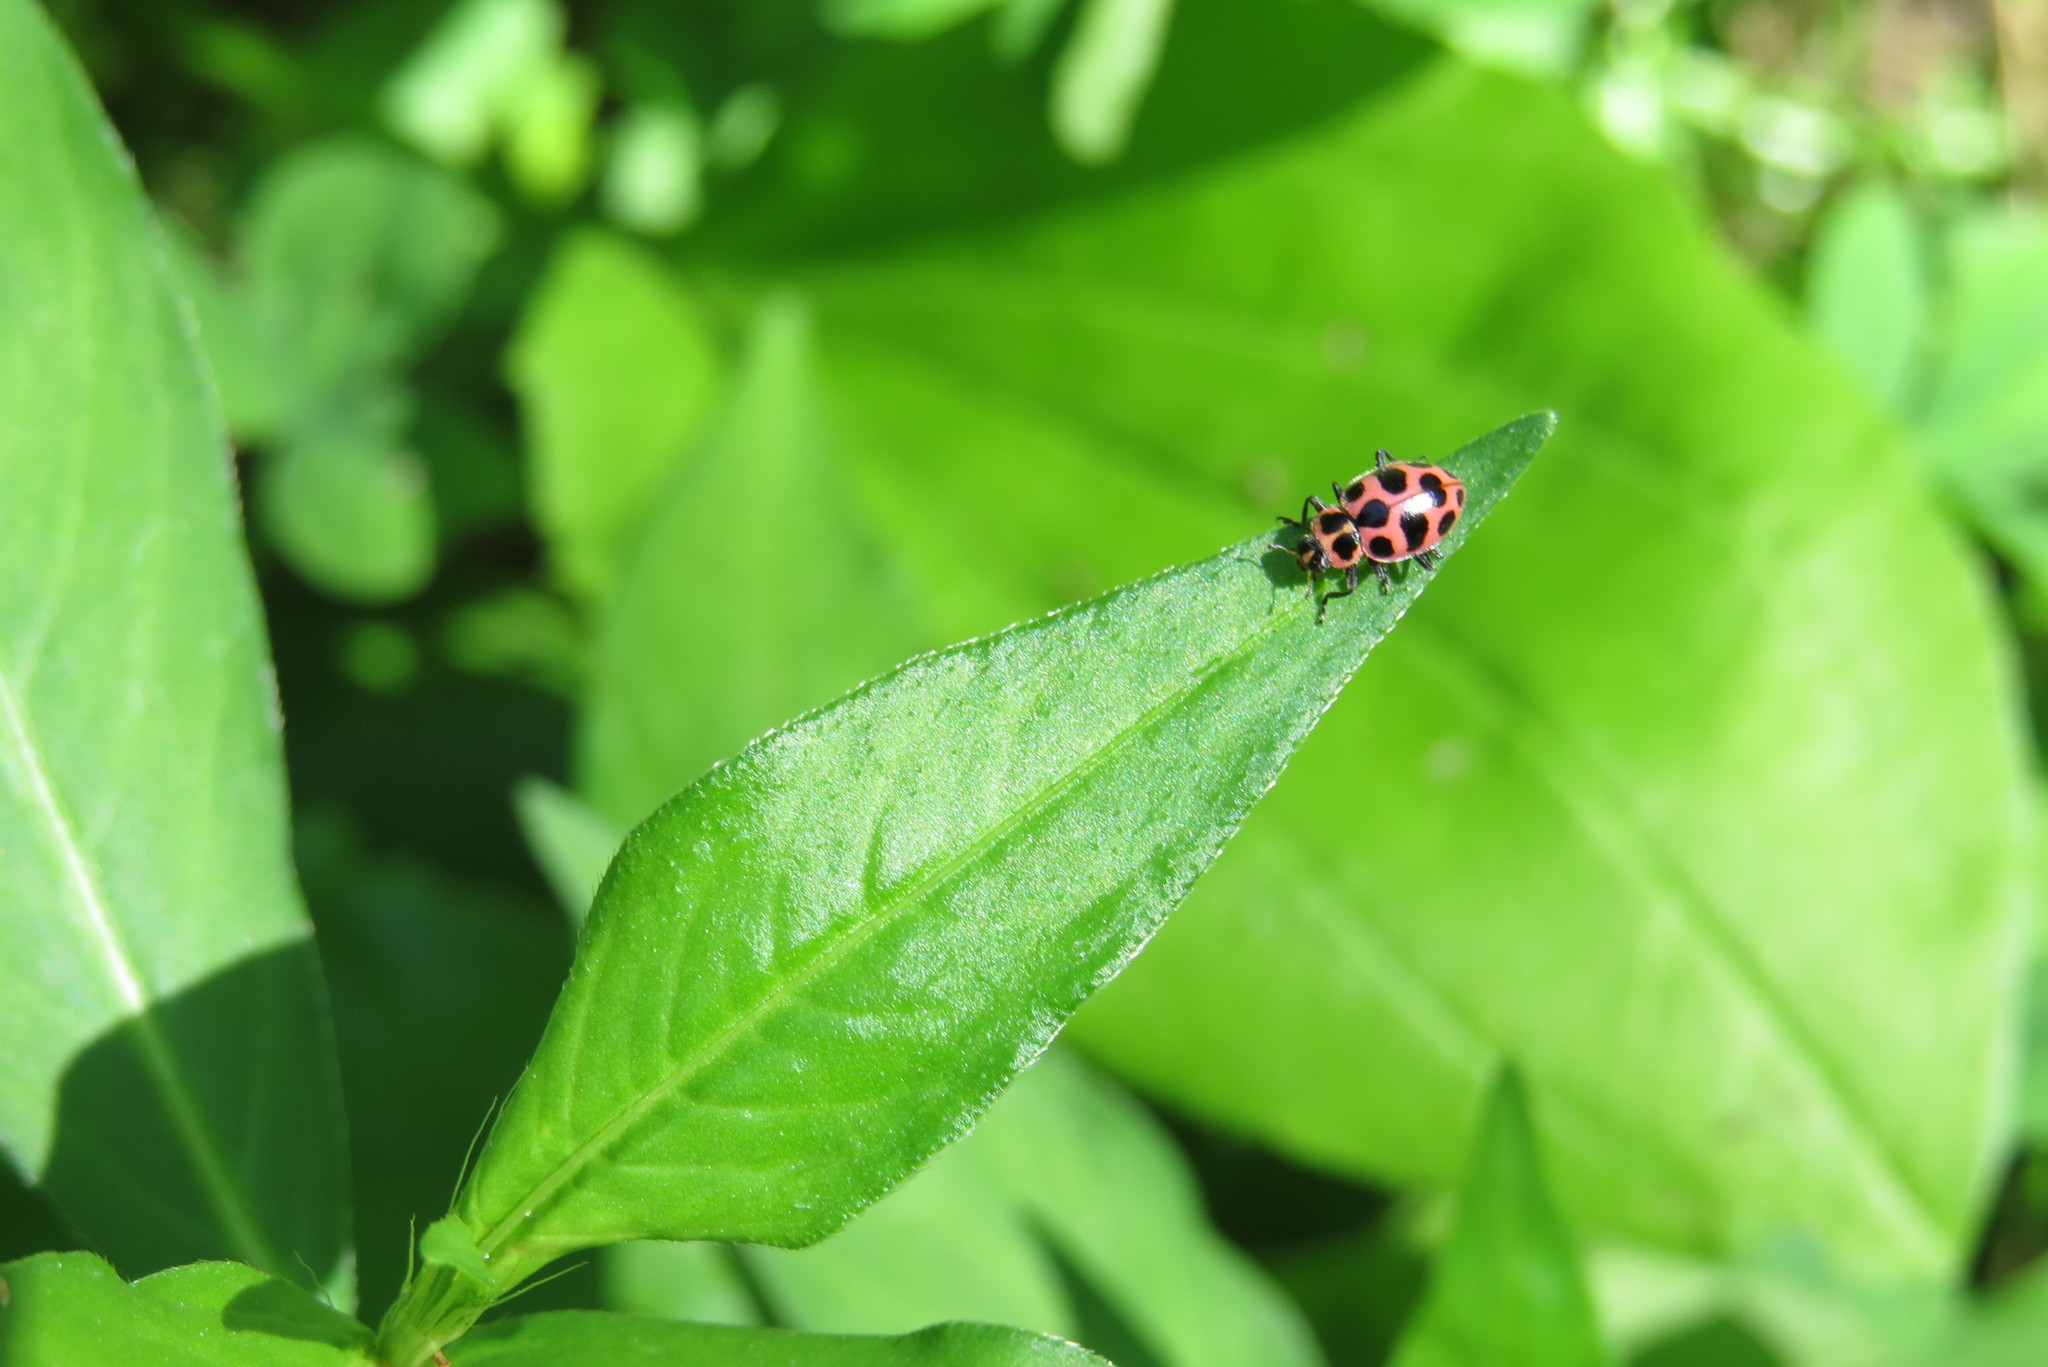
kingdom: Animalia
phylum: Arthropoda
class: Insecta
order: Coleoptera
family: Coccinellidae
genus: Coleomegilla
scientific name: Coleomegilla maculata
